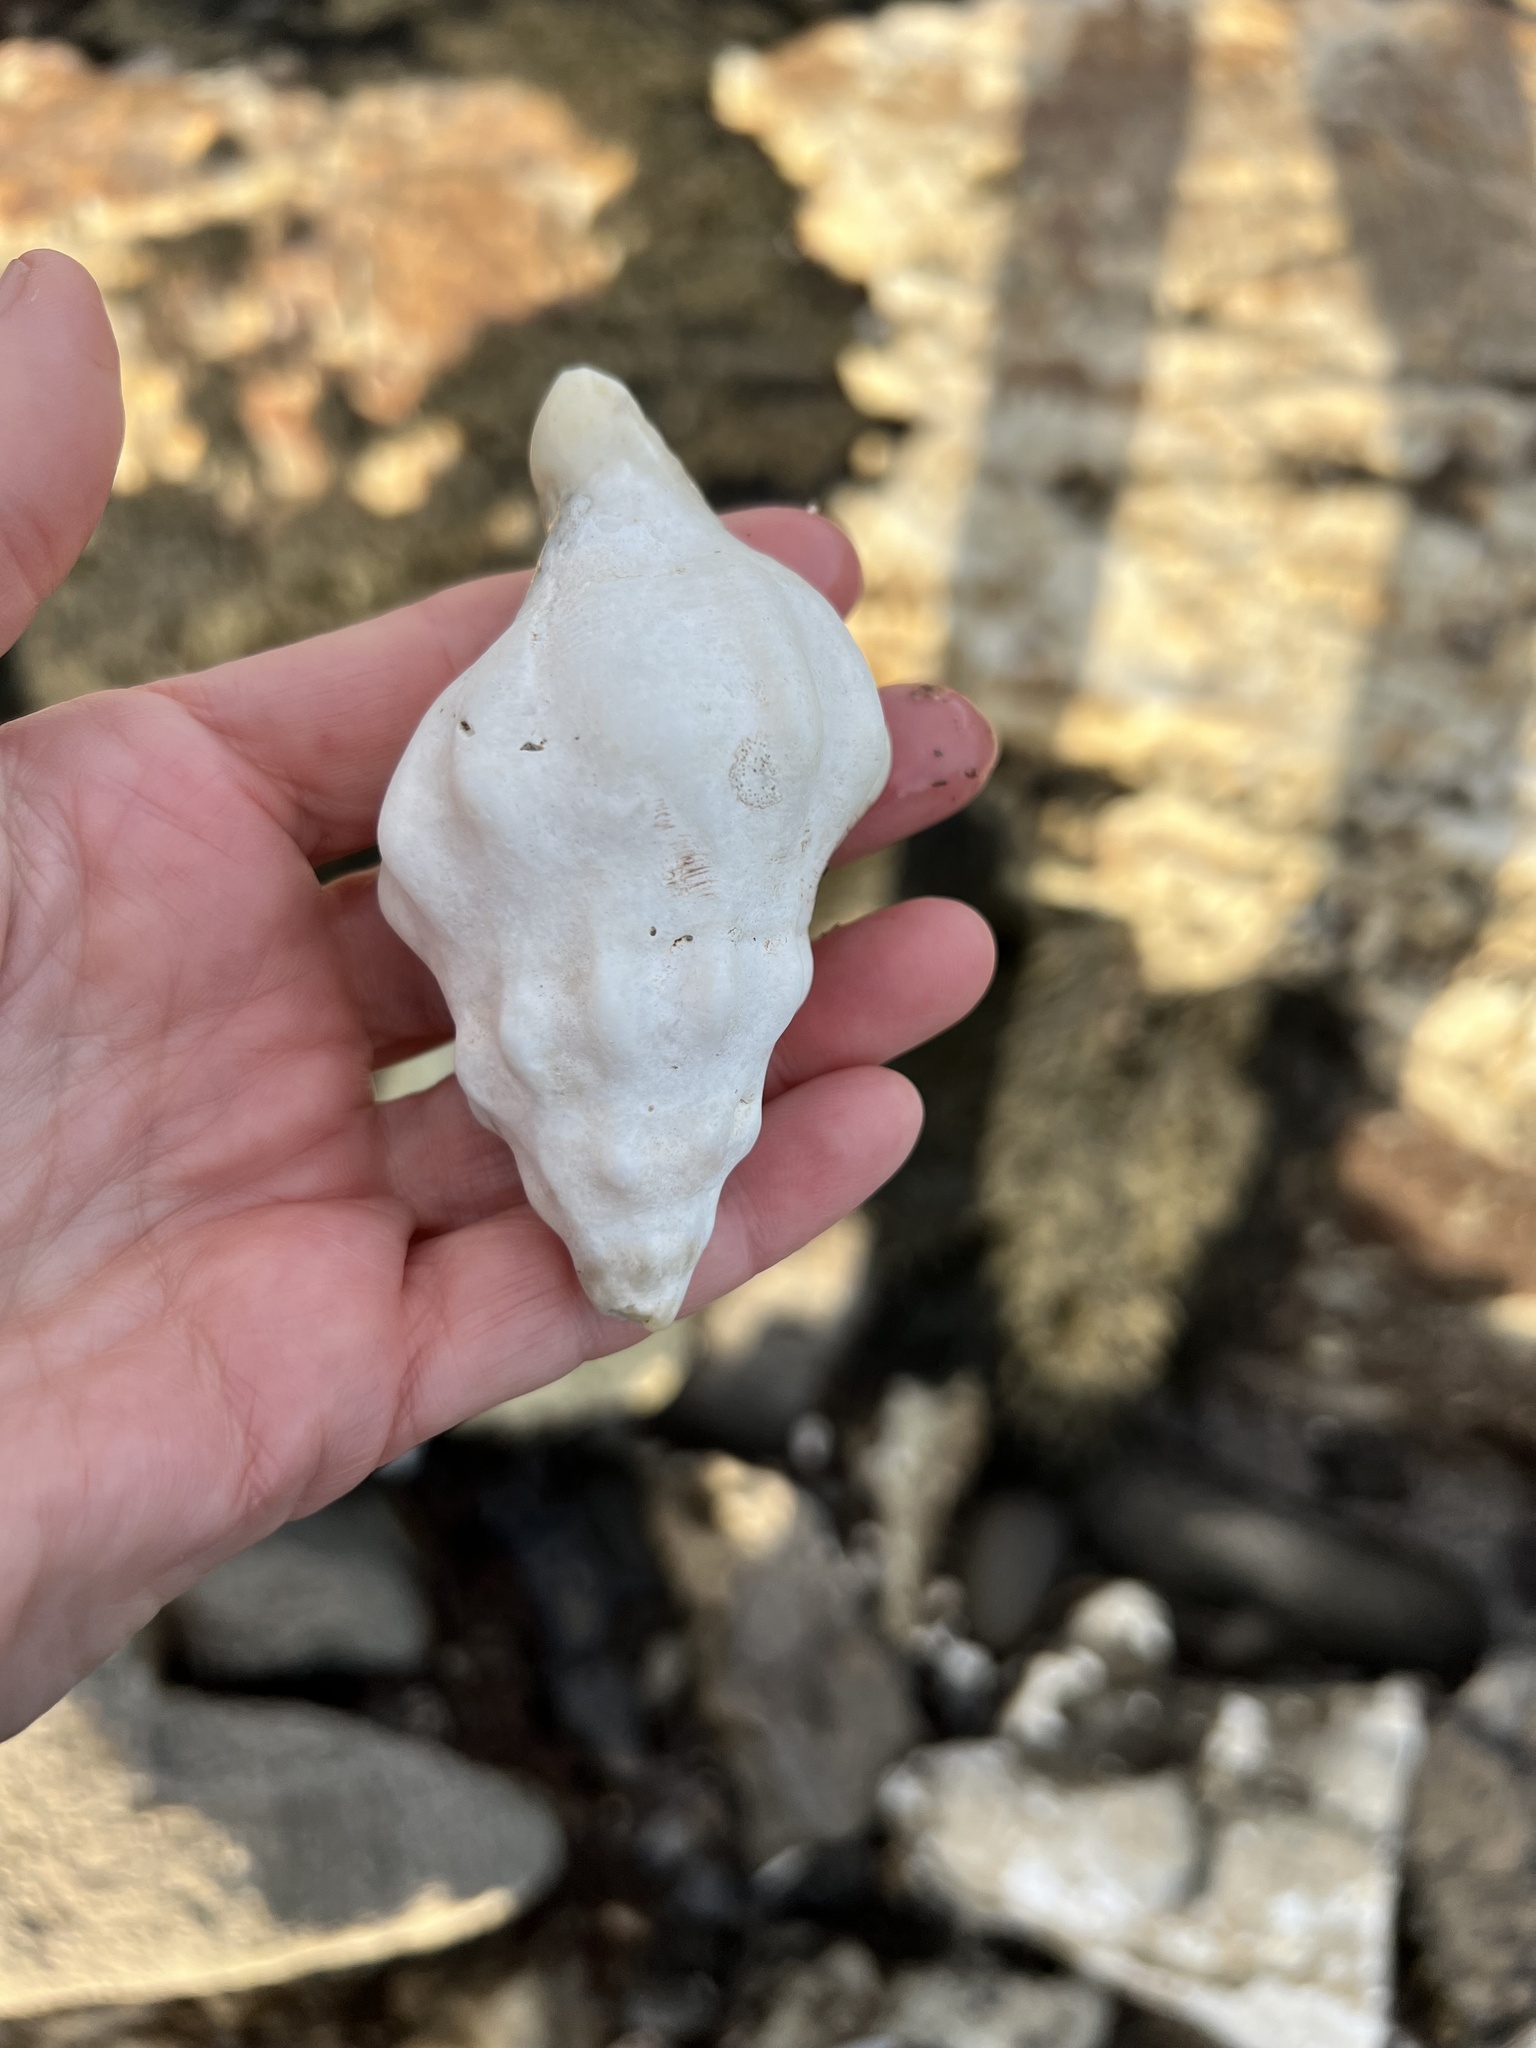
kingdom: Animalia
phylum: Mollusca
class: Gastropoda
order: Neogastropoda
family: Austrosiphonidae
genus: Kelletia
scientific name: Kelletia kelletii
